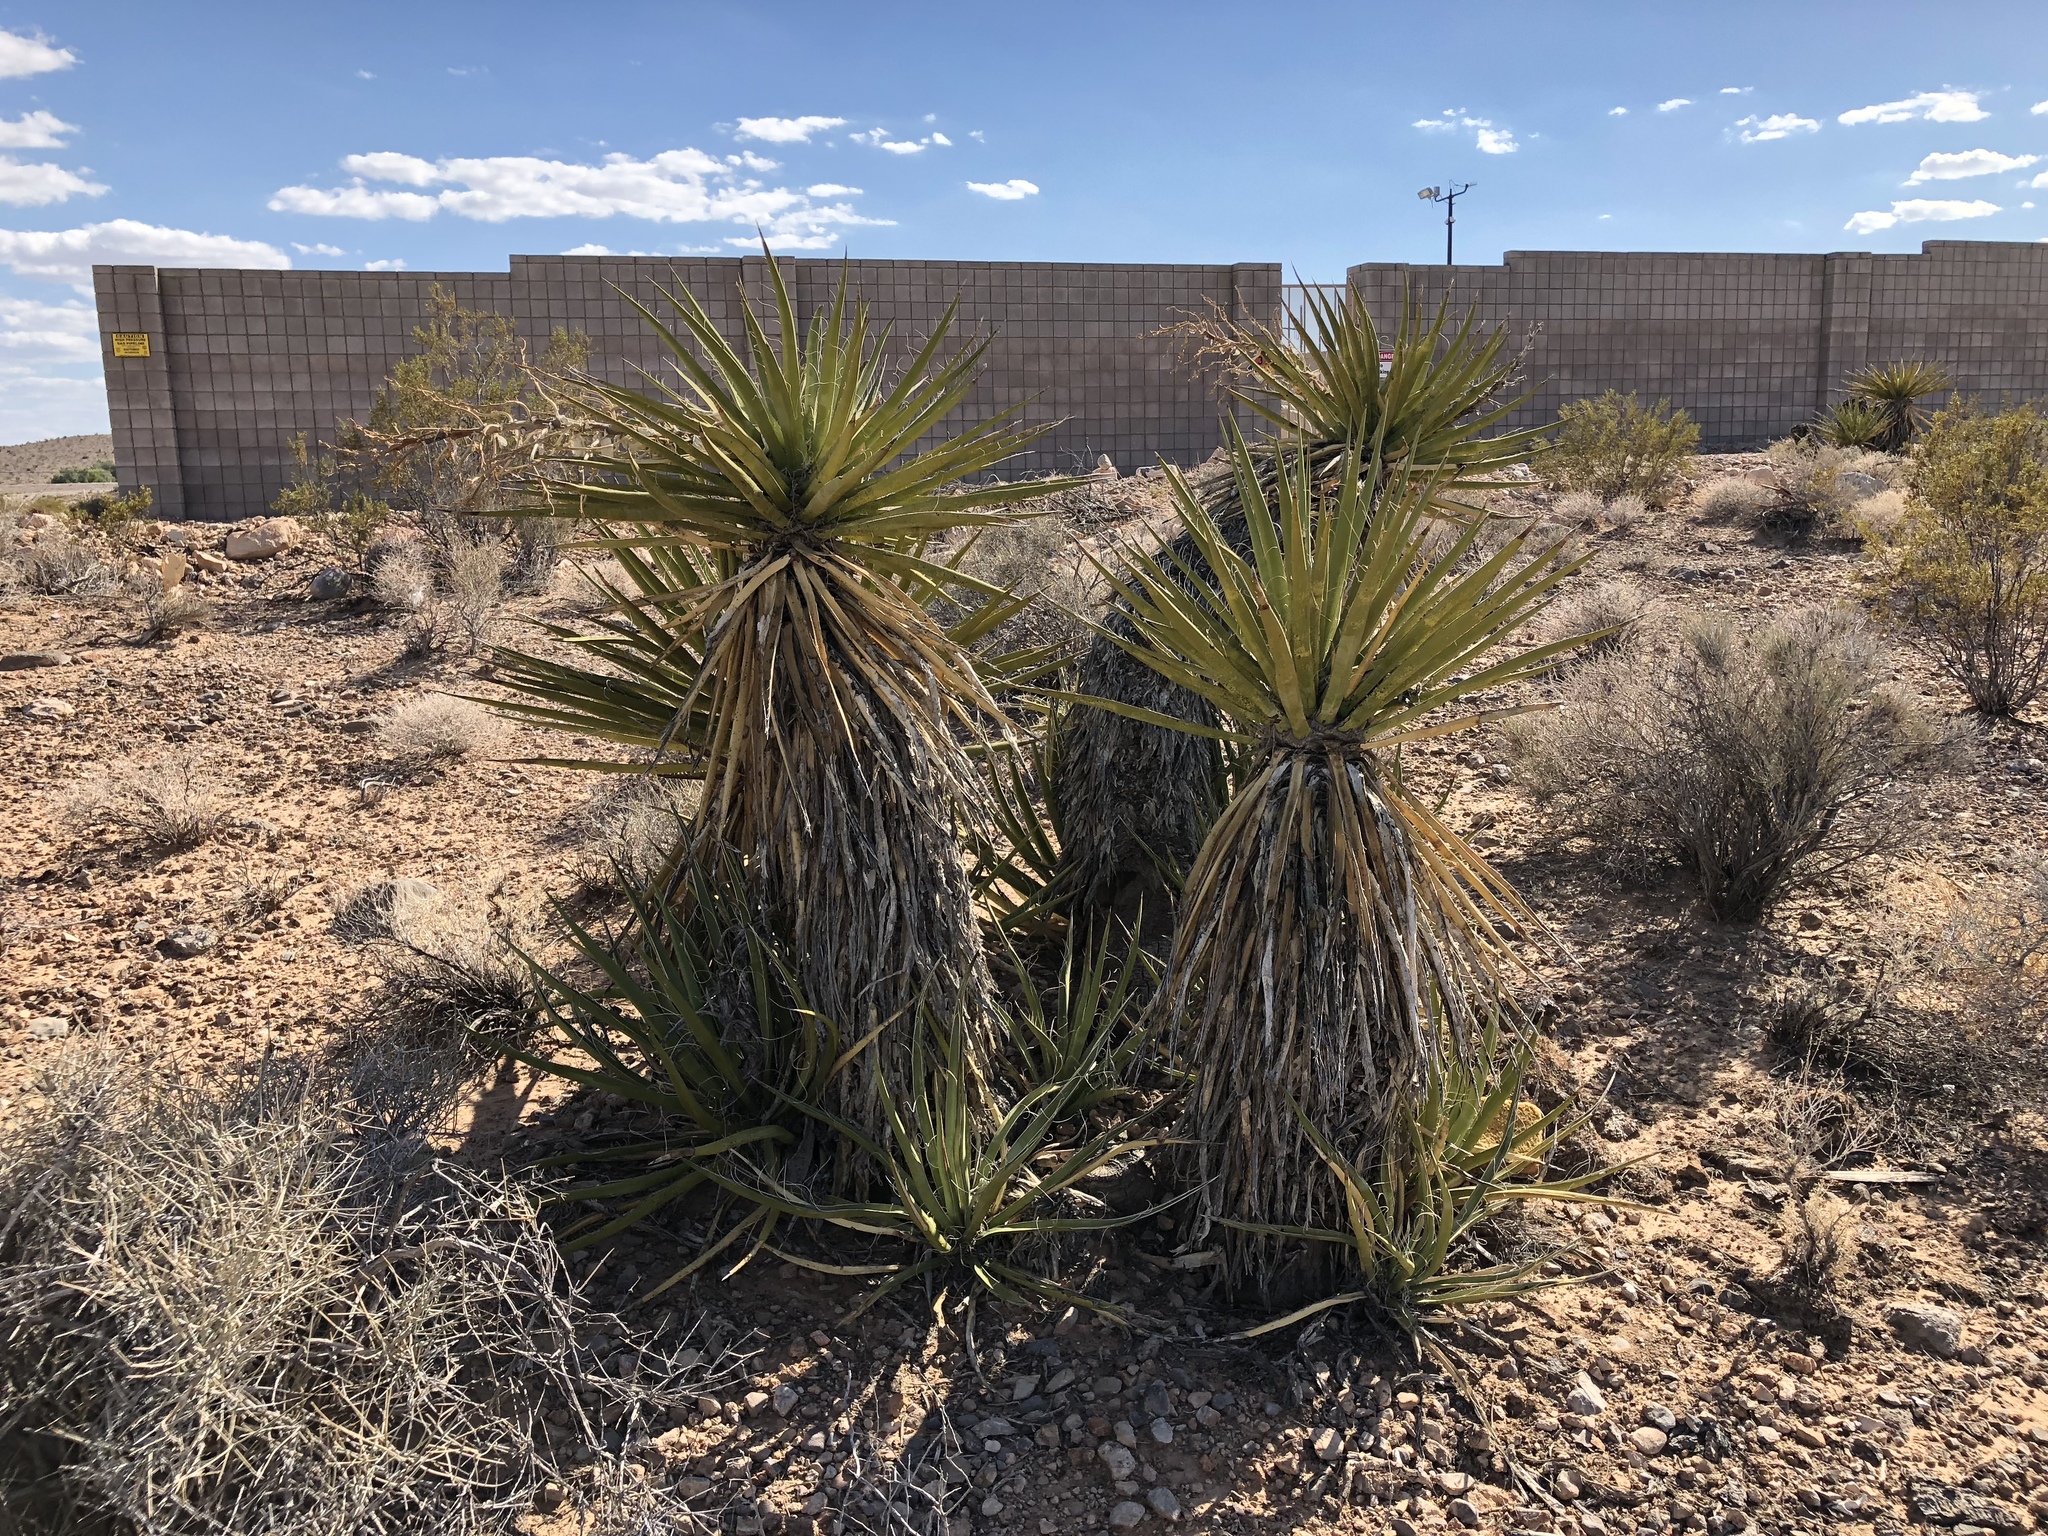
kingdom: Plantae
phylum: Tracheophyta
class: Liliopsida
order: Asparagales
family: Asparagaceae
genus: Yucca
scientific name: Yucca schidigera
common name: Mojave yucca
